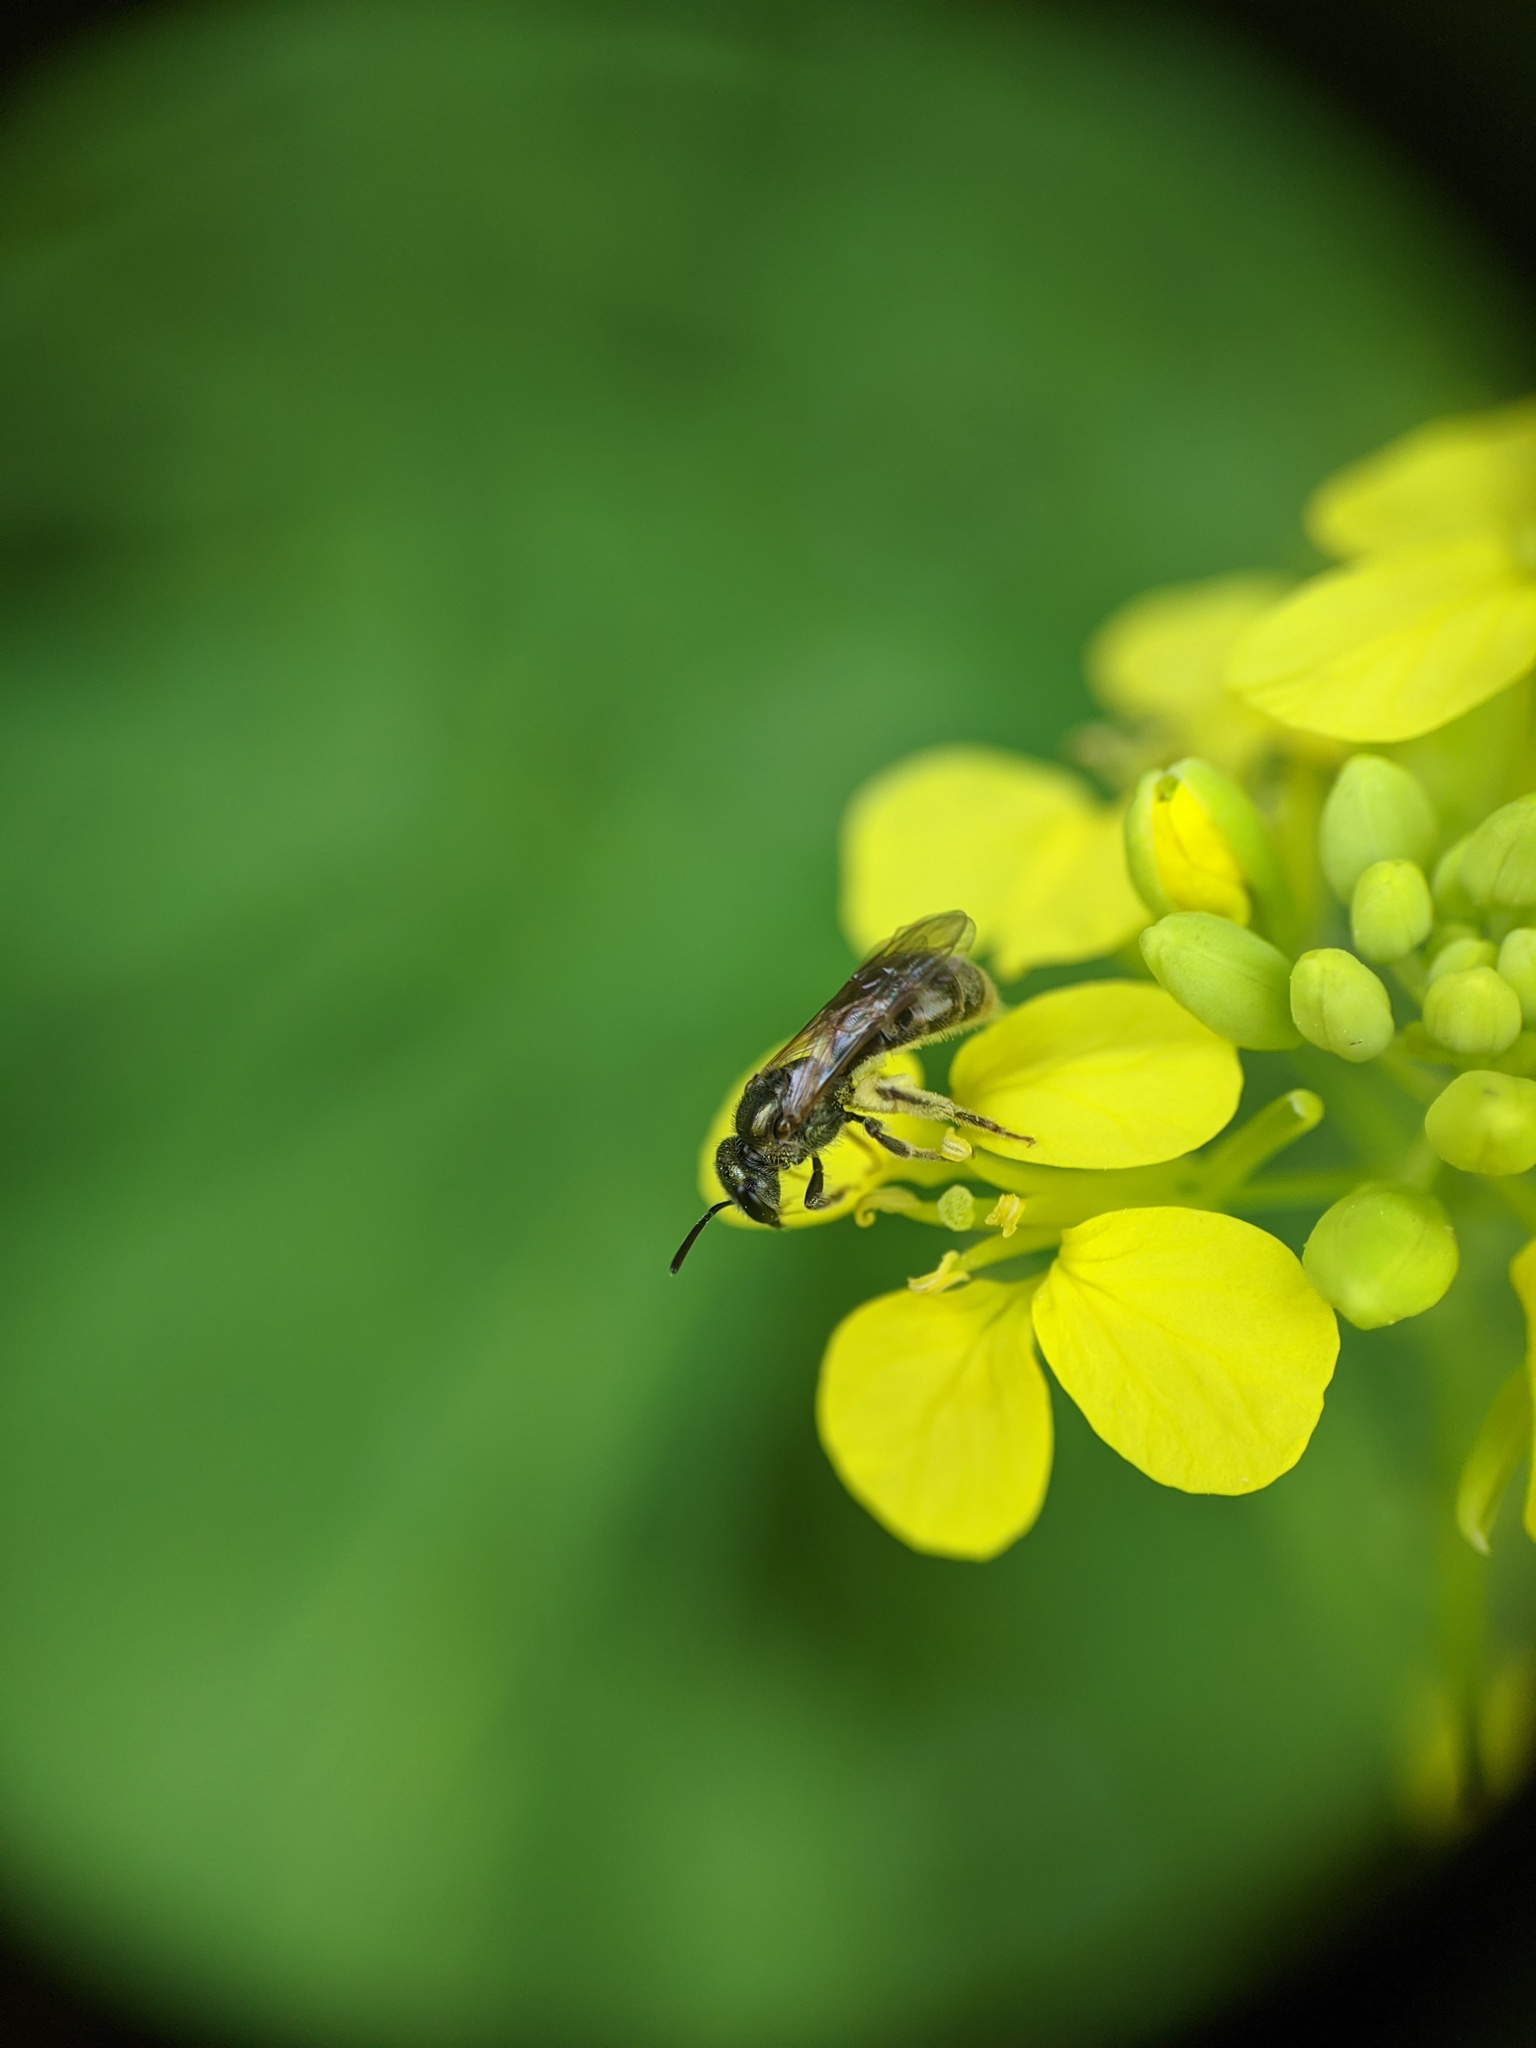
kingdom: Animalia
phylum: Arthropoda
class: Insecta
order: Hymenoptera
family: Halictidae
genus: Dialictus
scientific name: Dialictus
